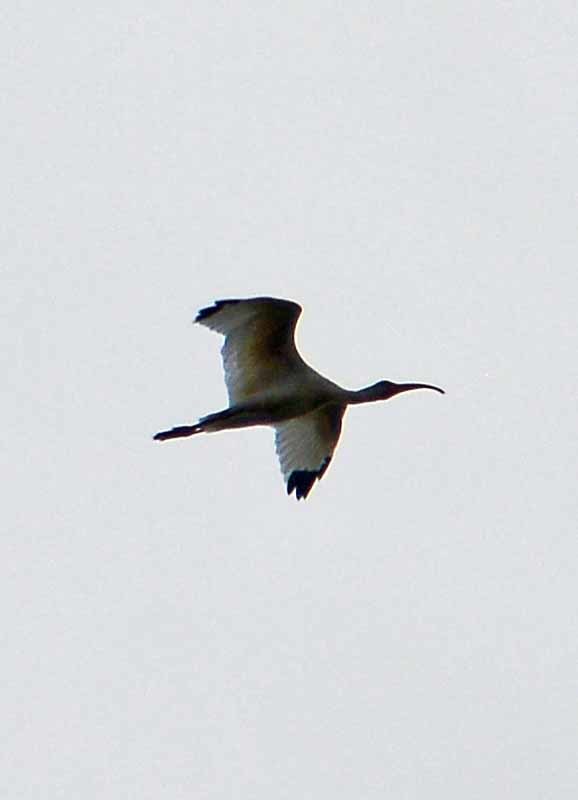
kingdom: Animalia
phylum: Chordata
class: Aves
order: Pelecaniformes
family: Threskiornithidae
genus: Eudocimus
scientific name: Eudocimus albus
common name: White ibis
